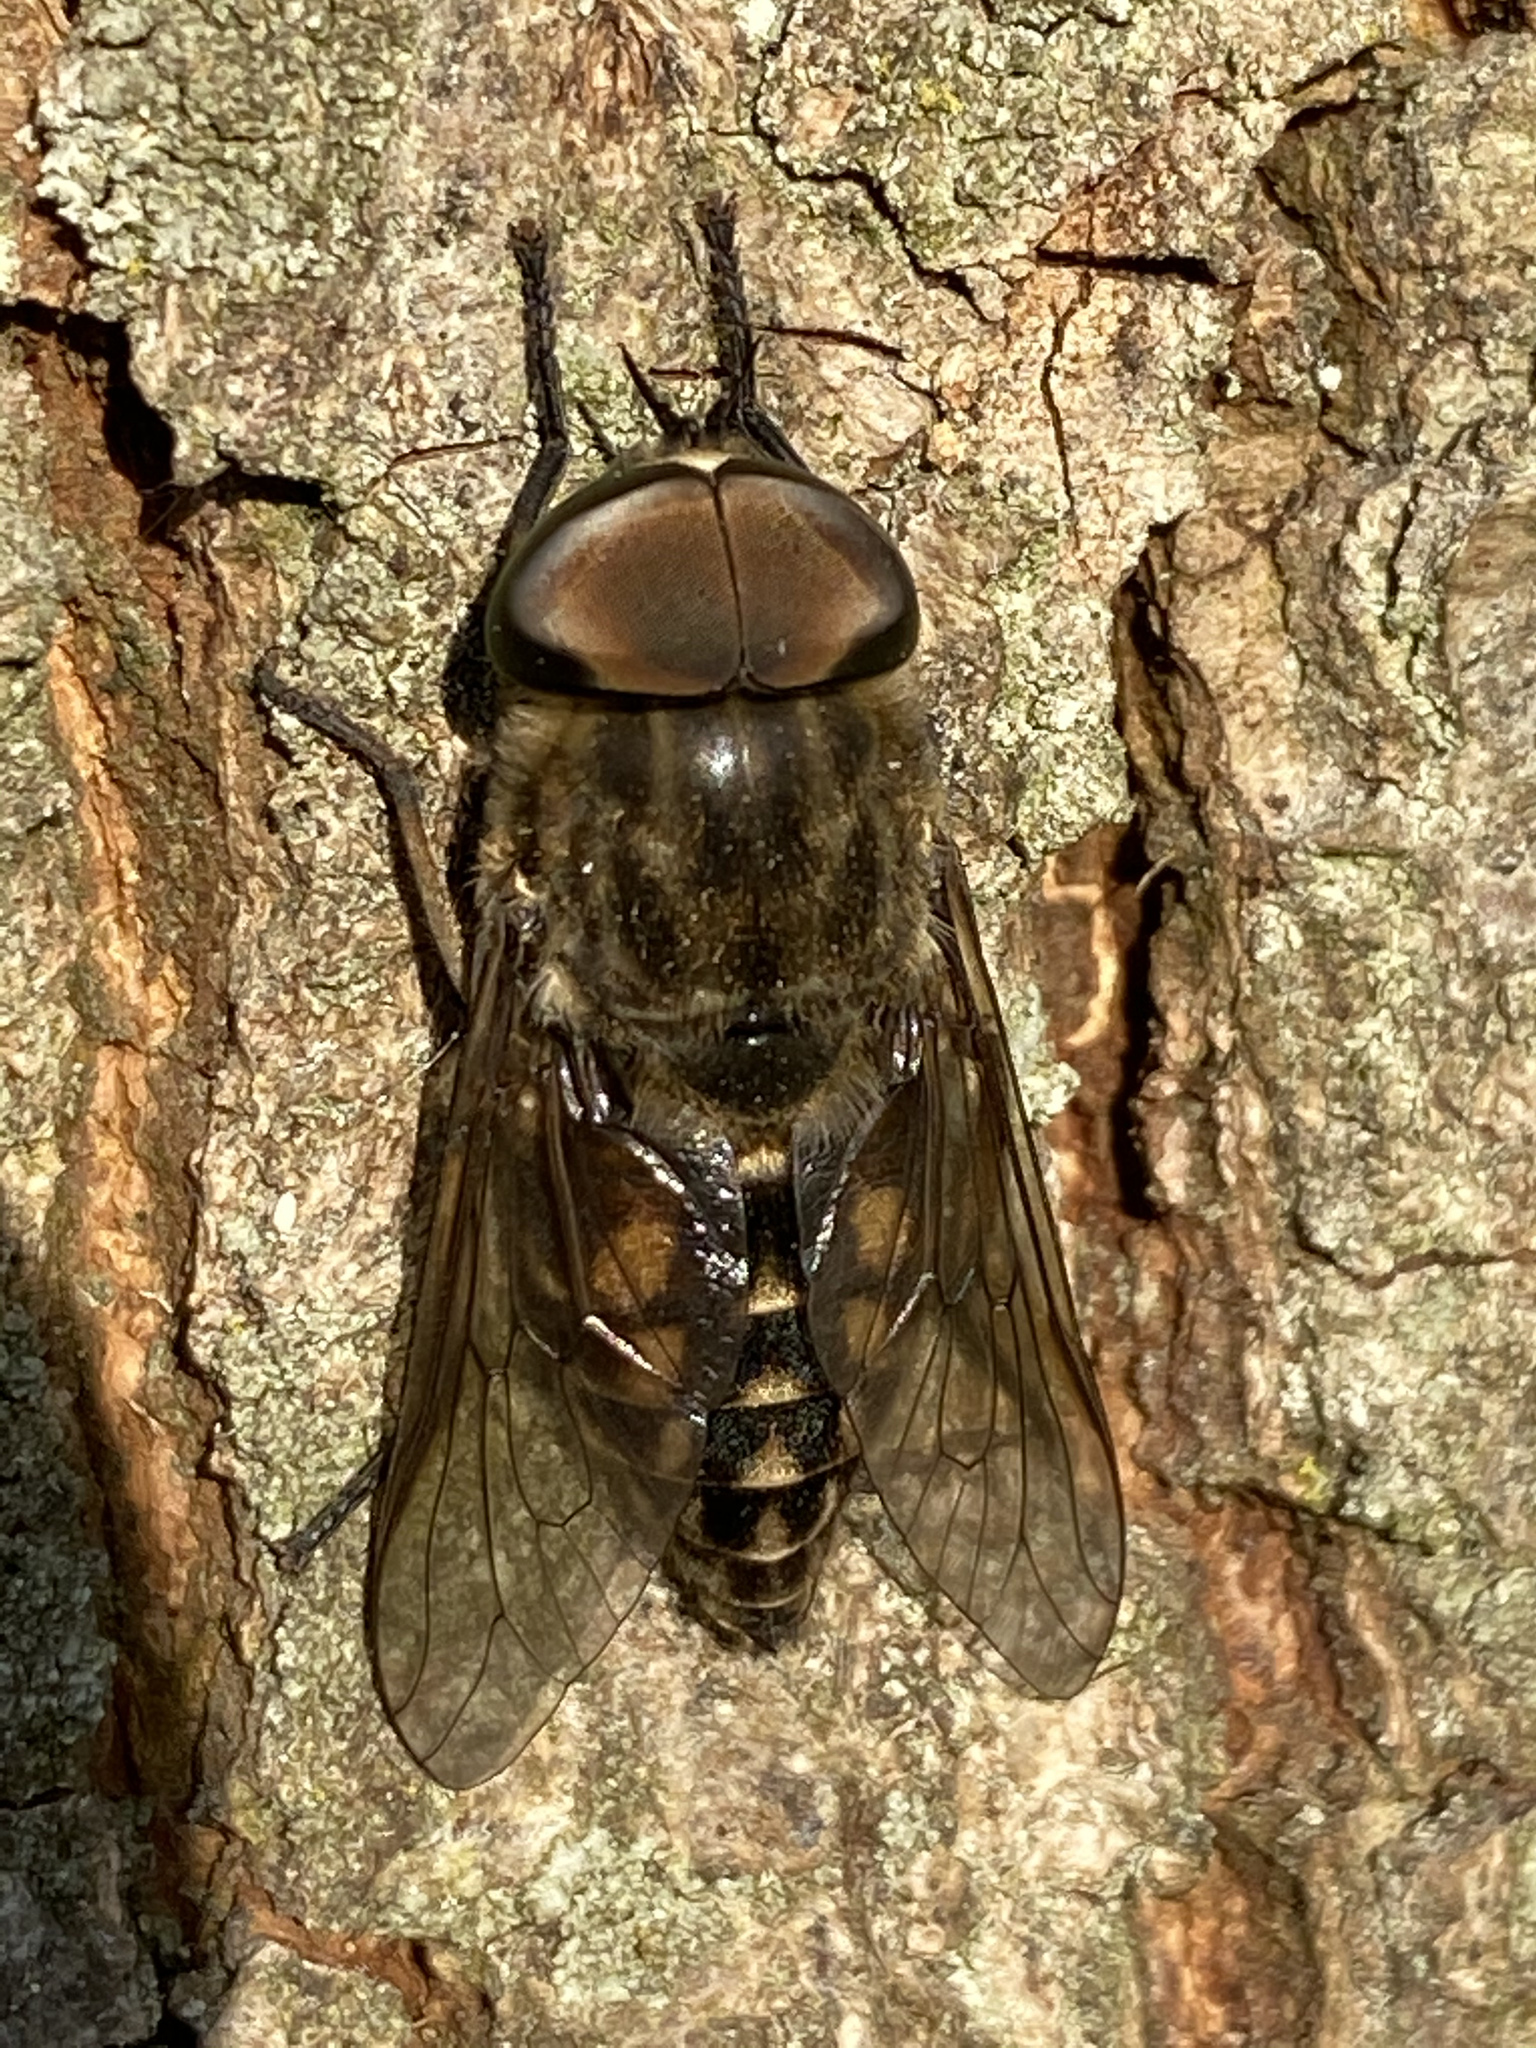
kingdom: Animalia
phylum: Arthropoda
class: Insecta
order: Diptera
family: Tabanidae
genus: Tabanus
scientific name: Tabanus autumnalis
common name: Large marsh horsefly
